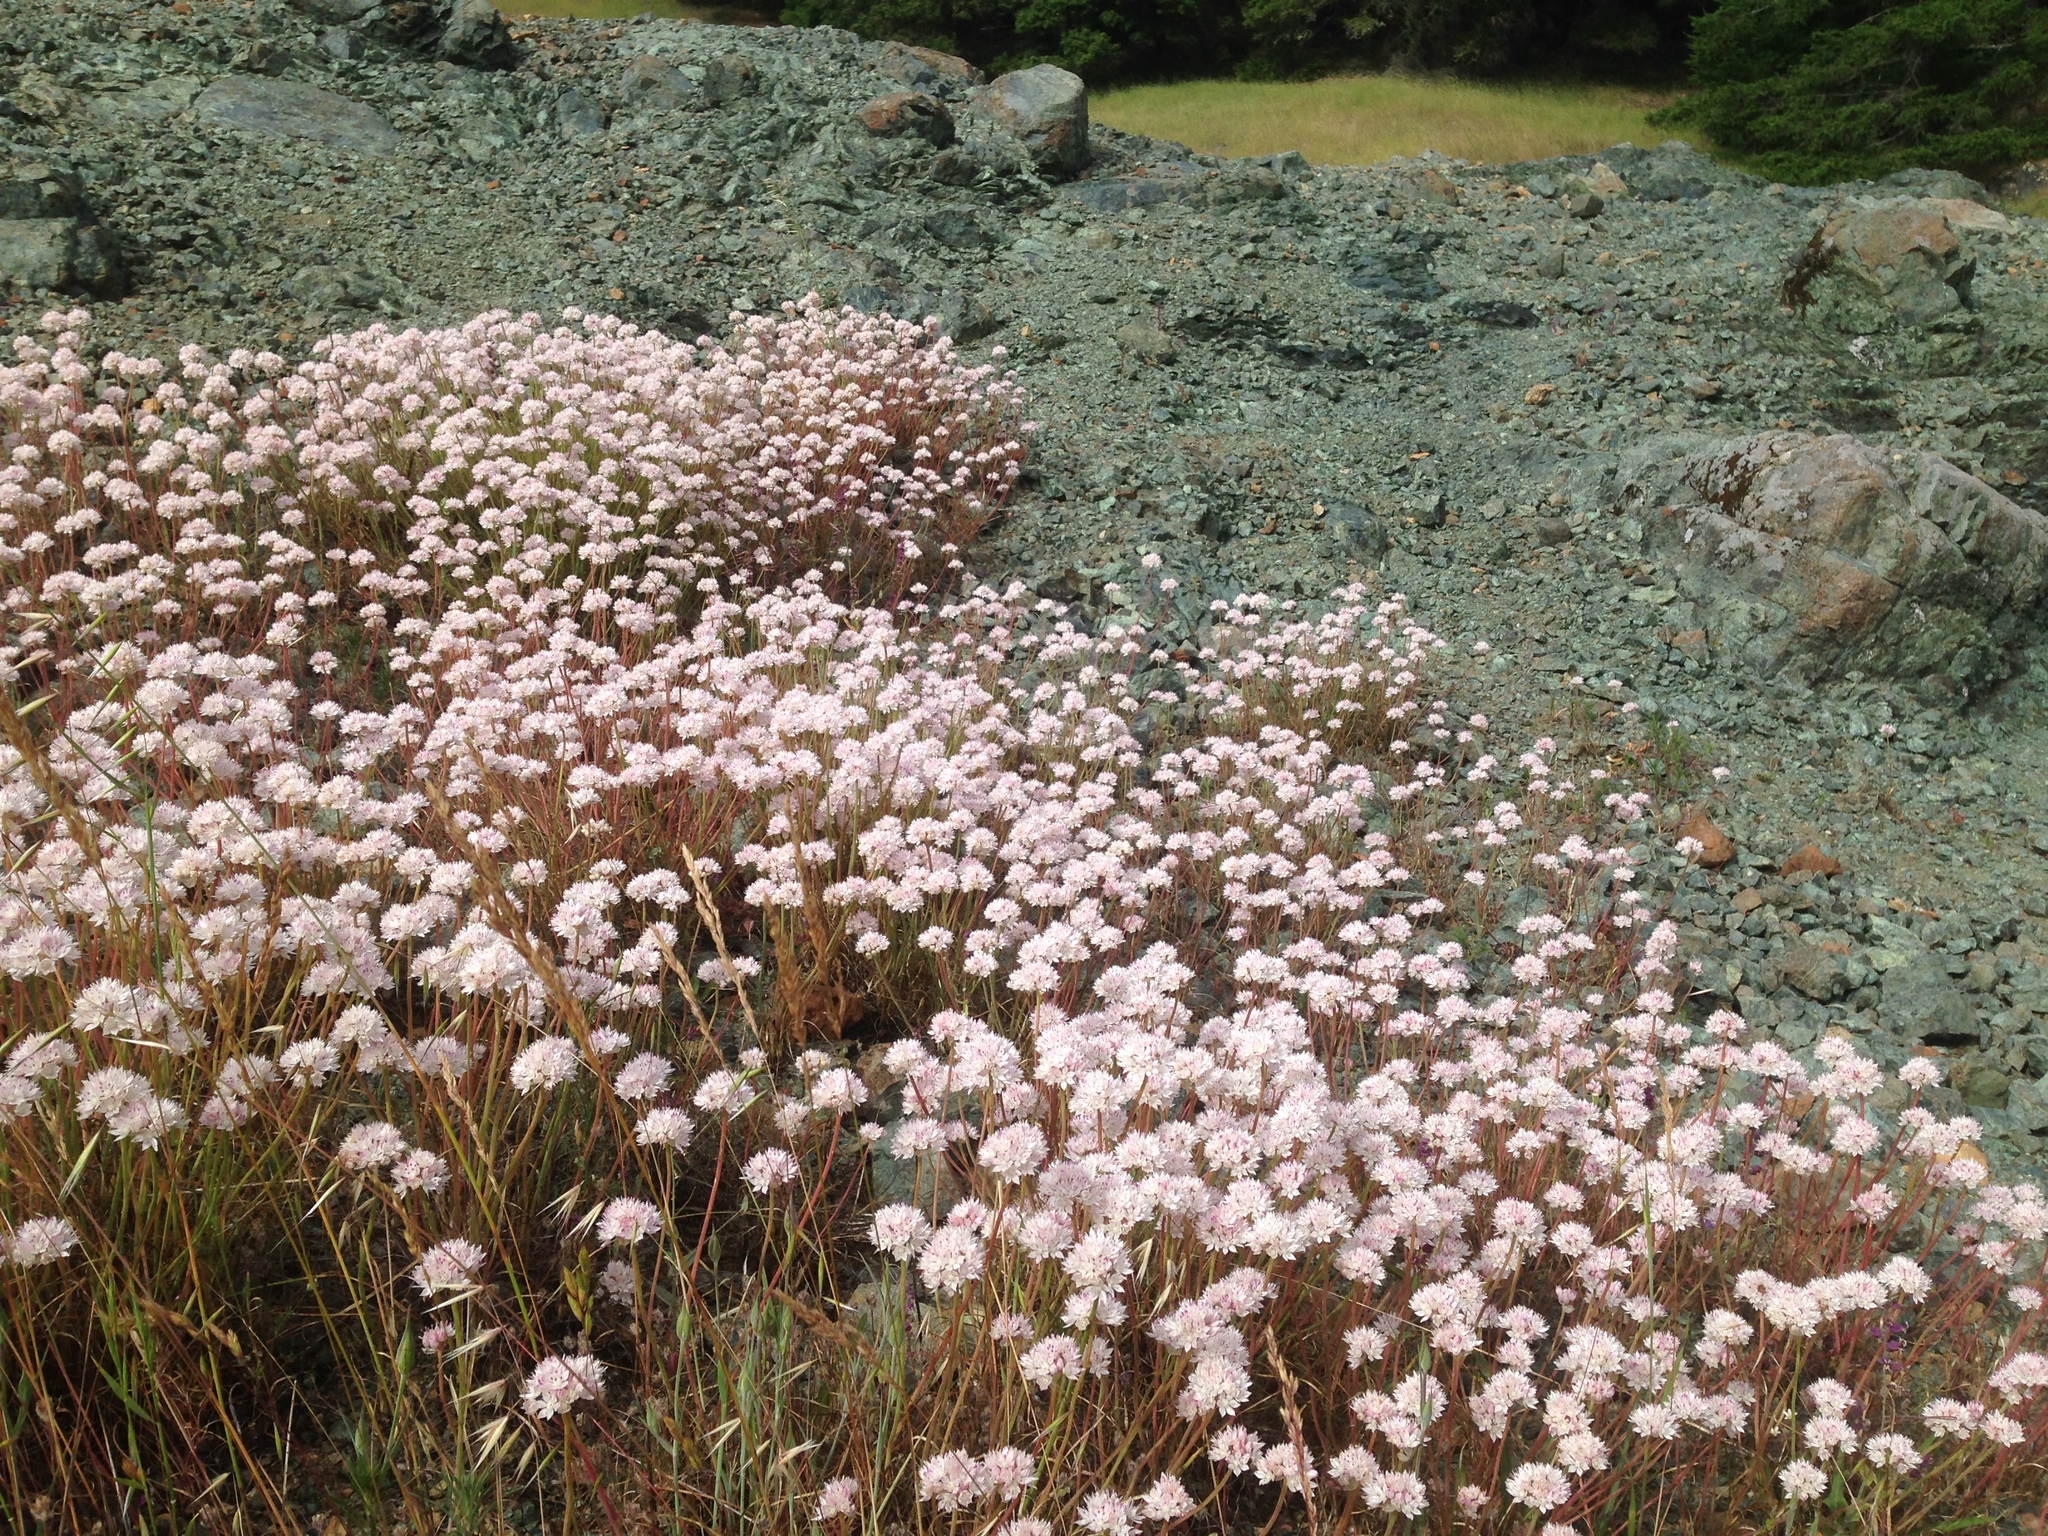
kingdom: Plantae
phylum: Tracheophyta
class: Liliopsida
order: Asparagales
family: Amaryllidaceae
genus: Allium
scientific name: Allium amplectens
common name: Narrow-leaved onion
